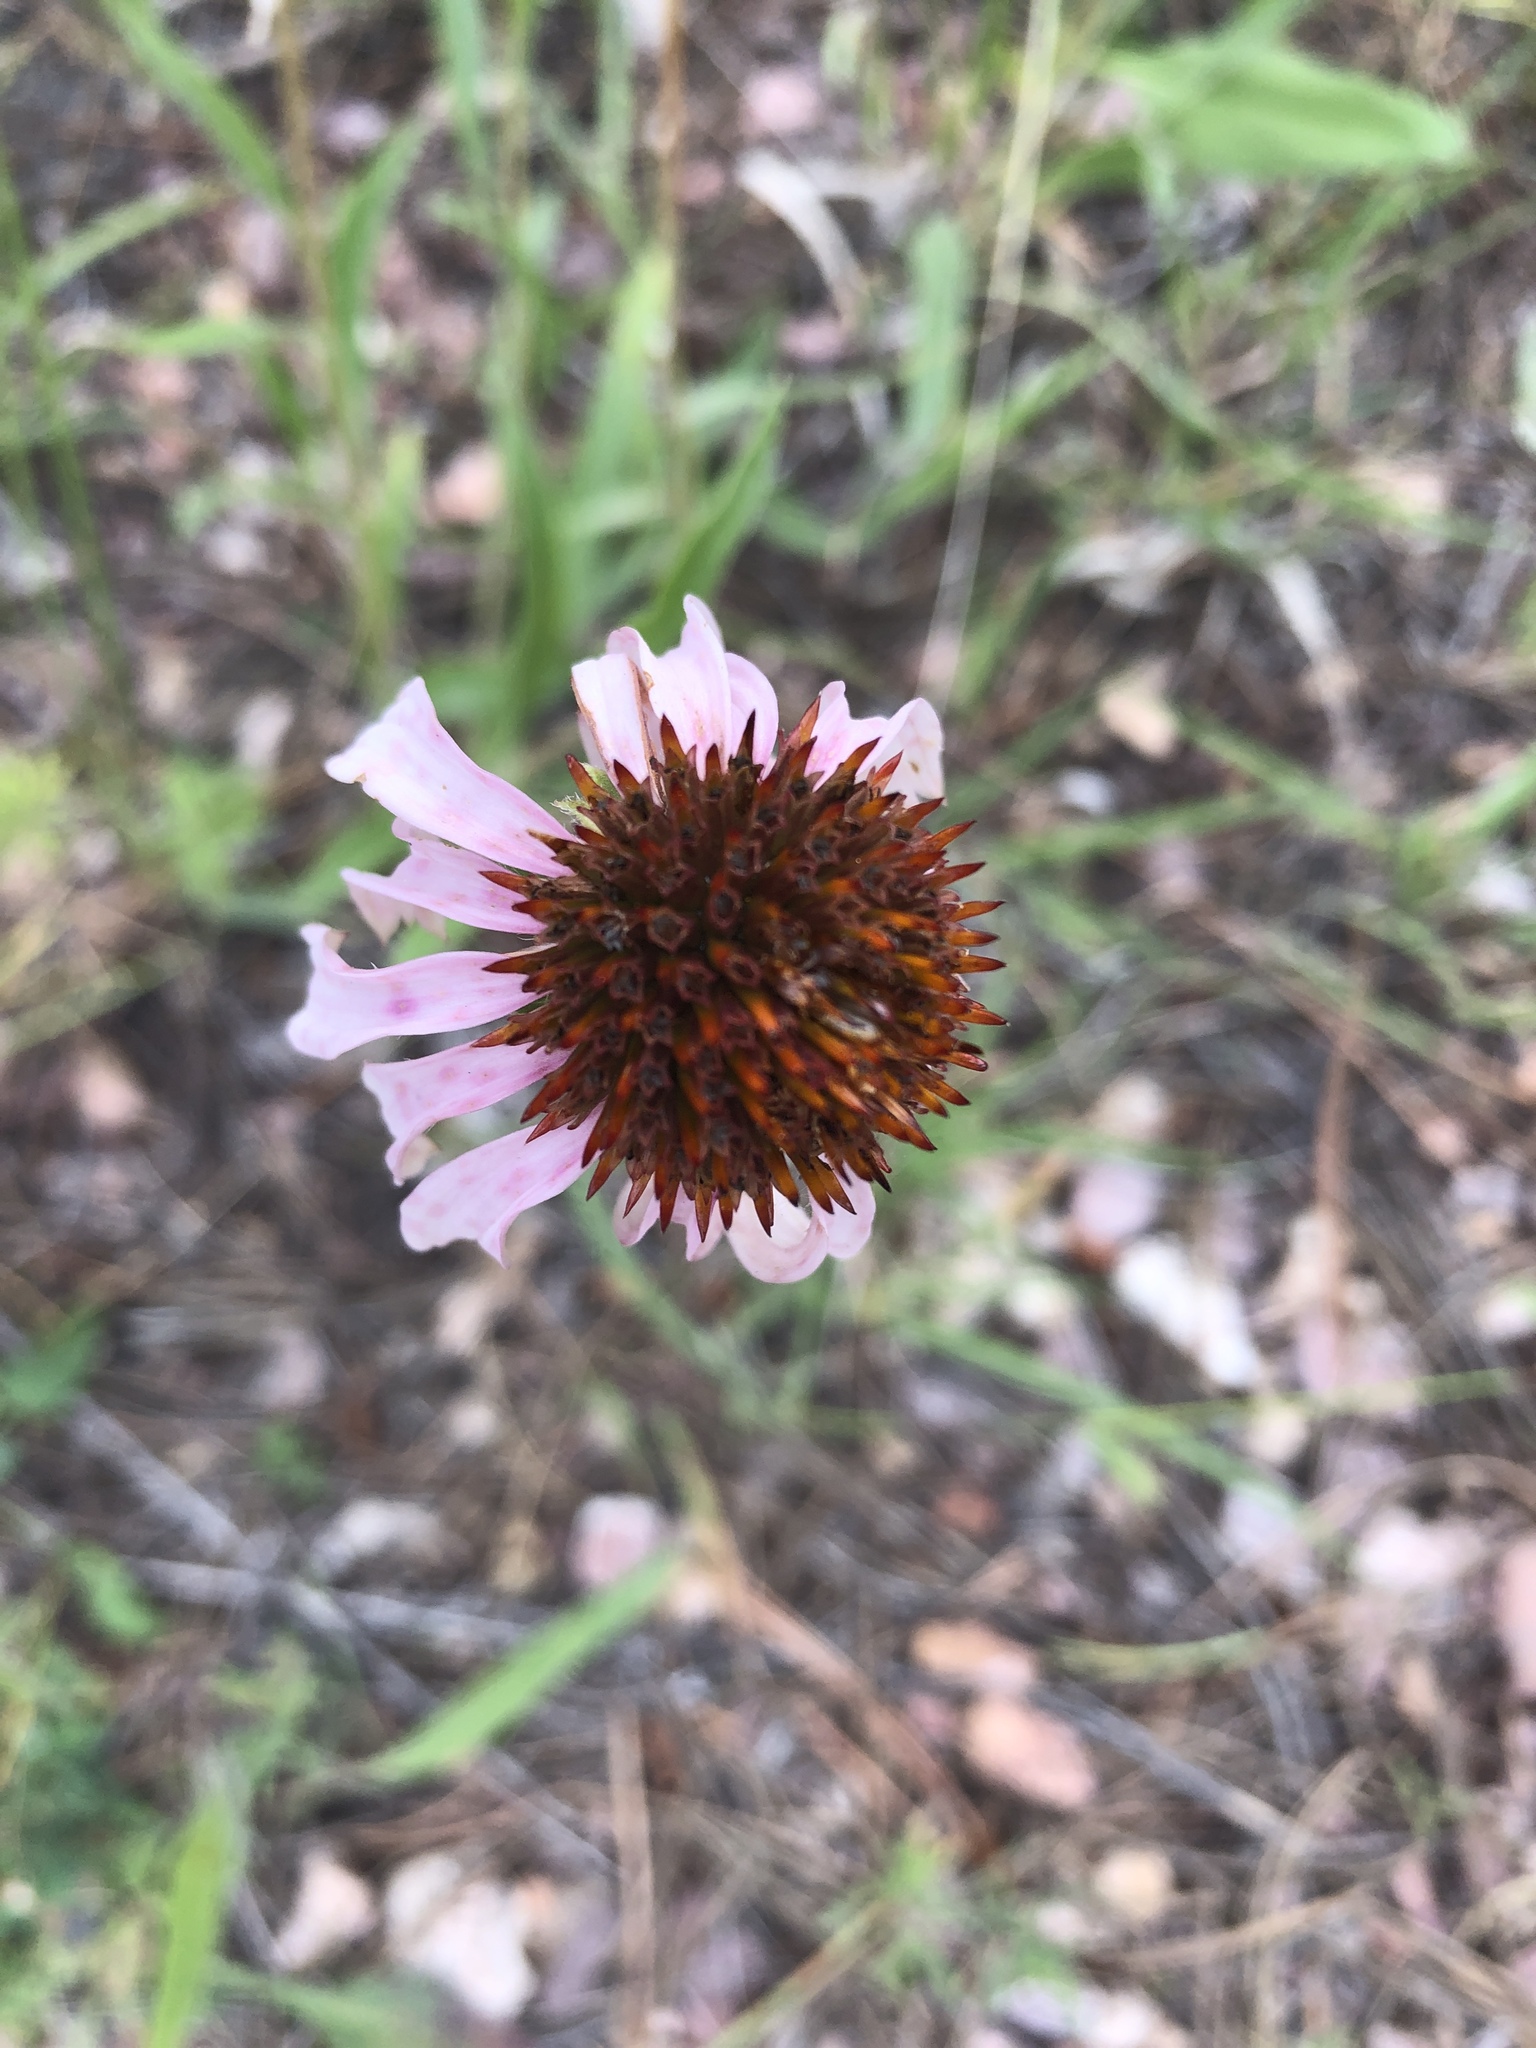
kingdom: Plantae
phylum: Tracheophyta
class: Magnoliopsida
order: Asterales
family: Asteraceae
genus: Echinacea
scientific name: Echinacea angustifolia
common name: Black-sampson echinacea
